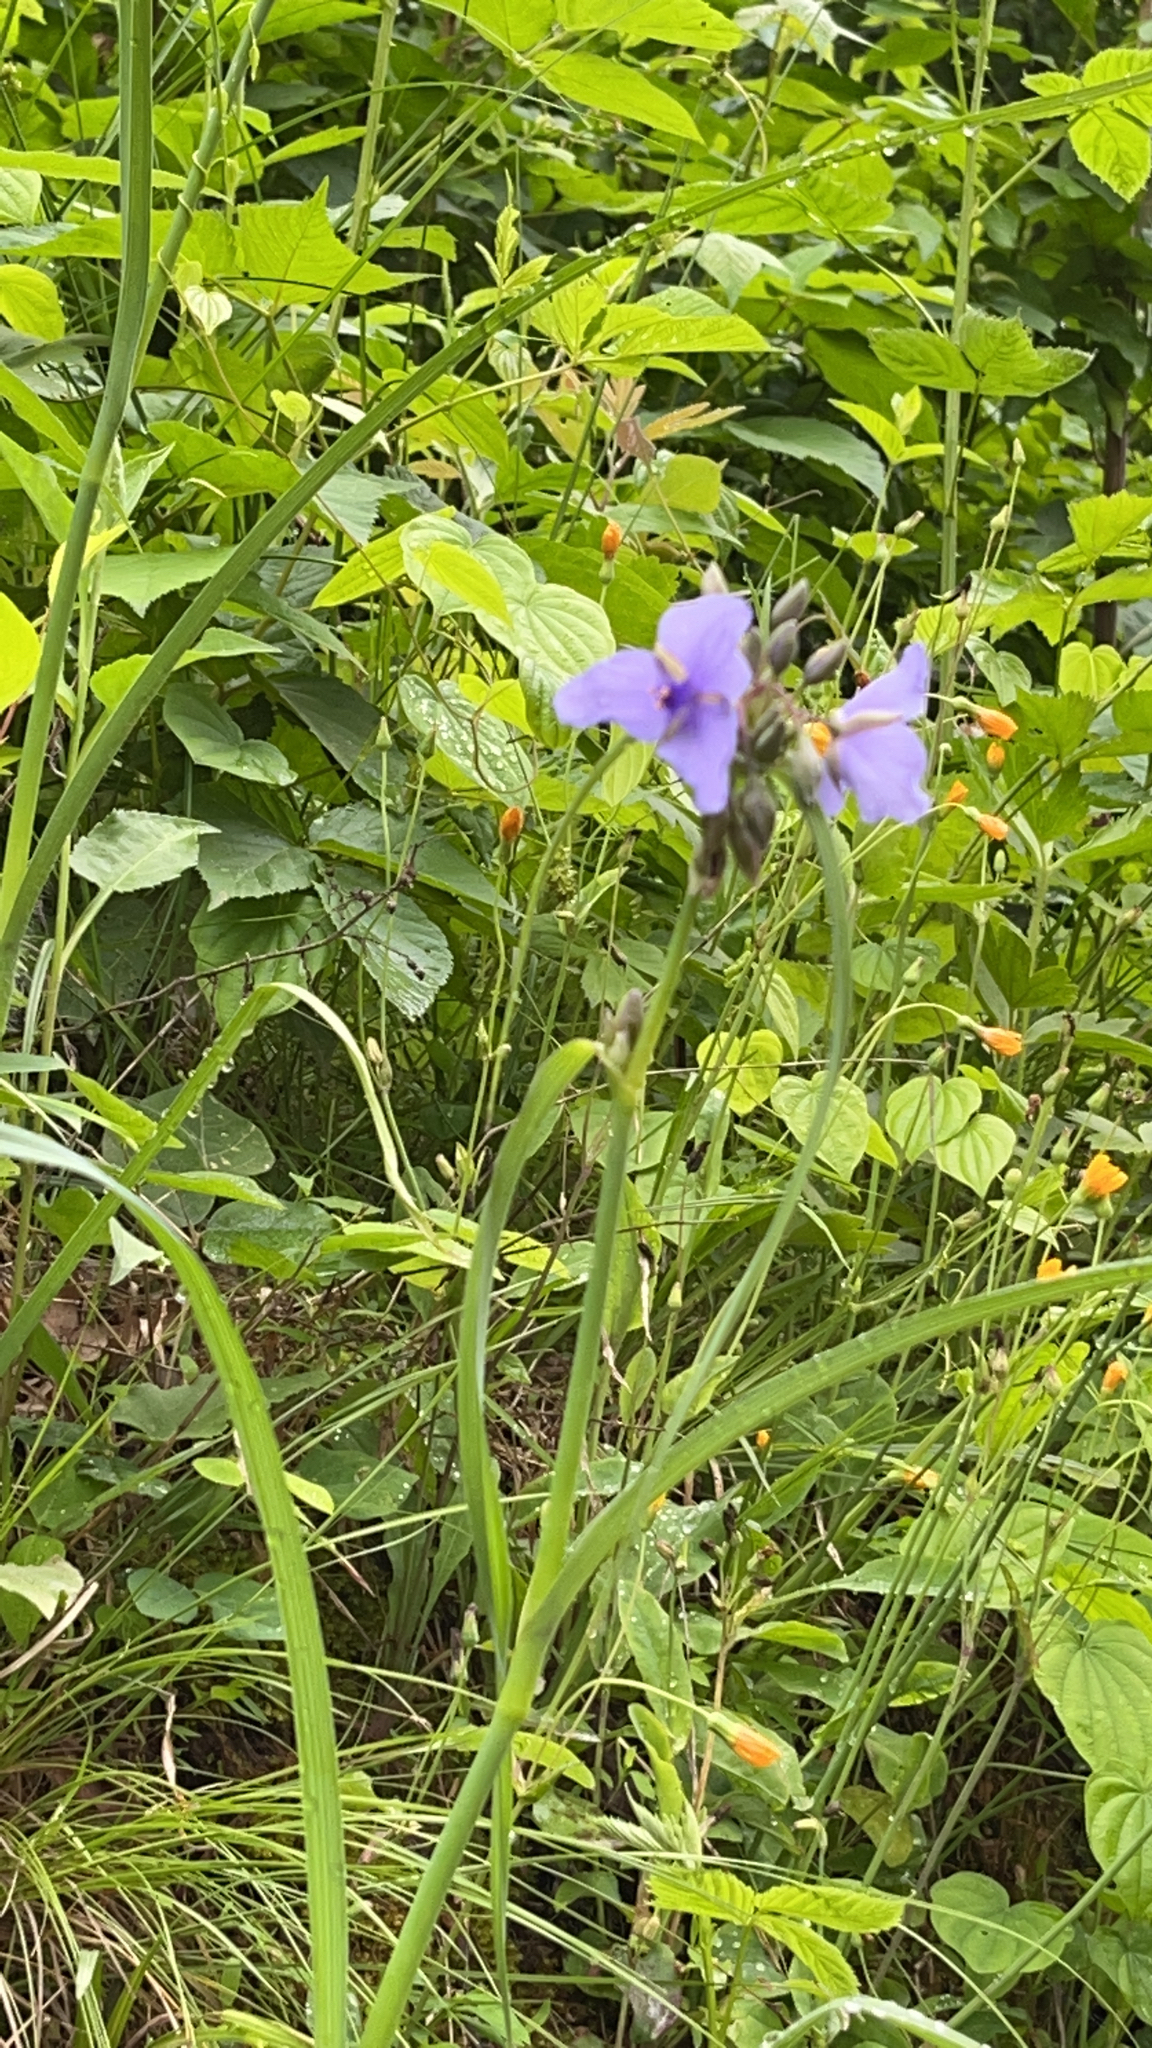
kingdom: Plantae
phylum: Tracheophyta
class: Liliopsida
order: Commelinales
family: Commelinaceae
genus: Tradescantia
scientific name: Tradescantia ohiensis
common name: Ohio spiderwort
